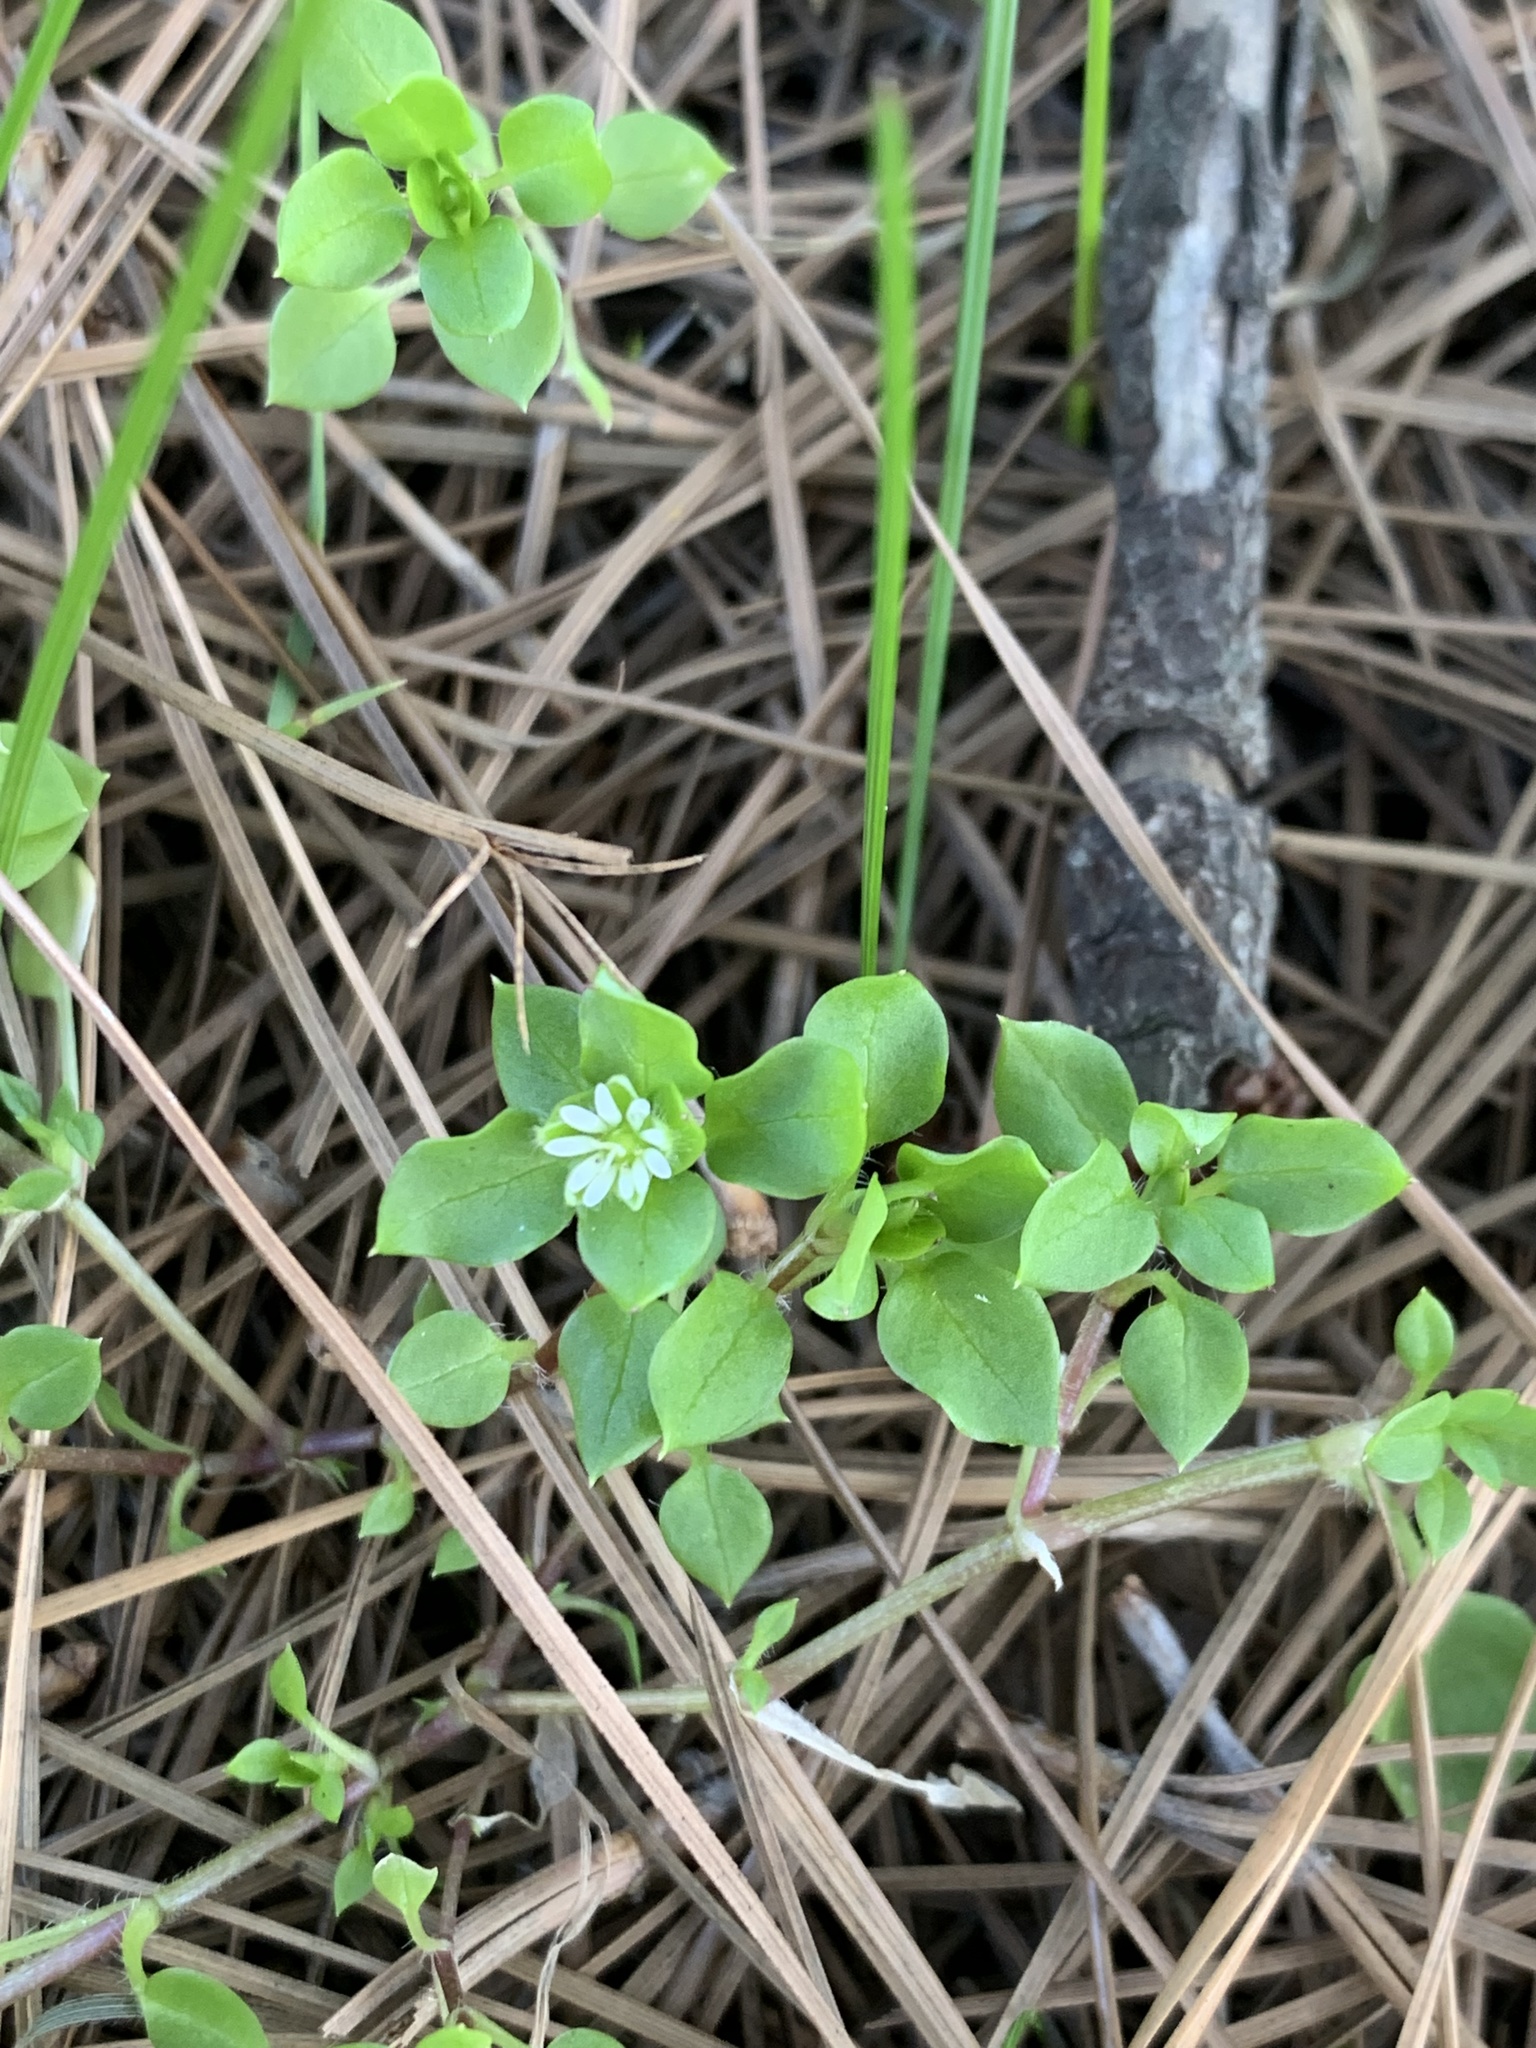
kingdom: Plantae
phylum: Tracheophyta
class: Magnoliopsida
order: Caryophyllales
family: Caryophyllaceae
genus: Stellaria
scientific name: Stellaria media
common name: Common chickweed
